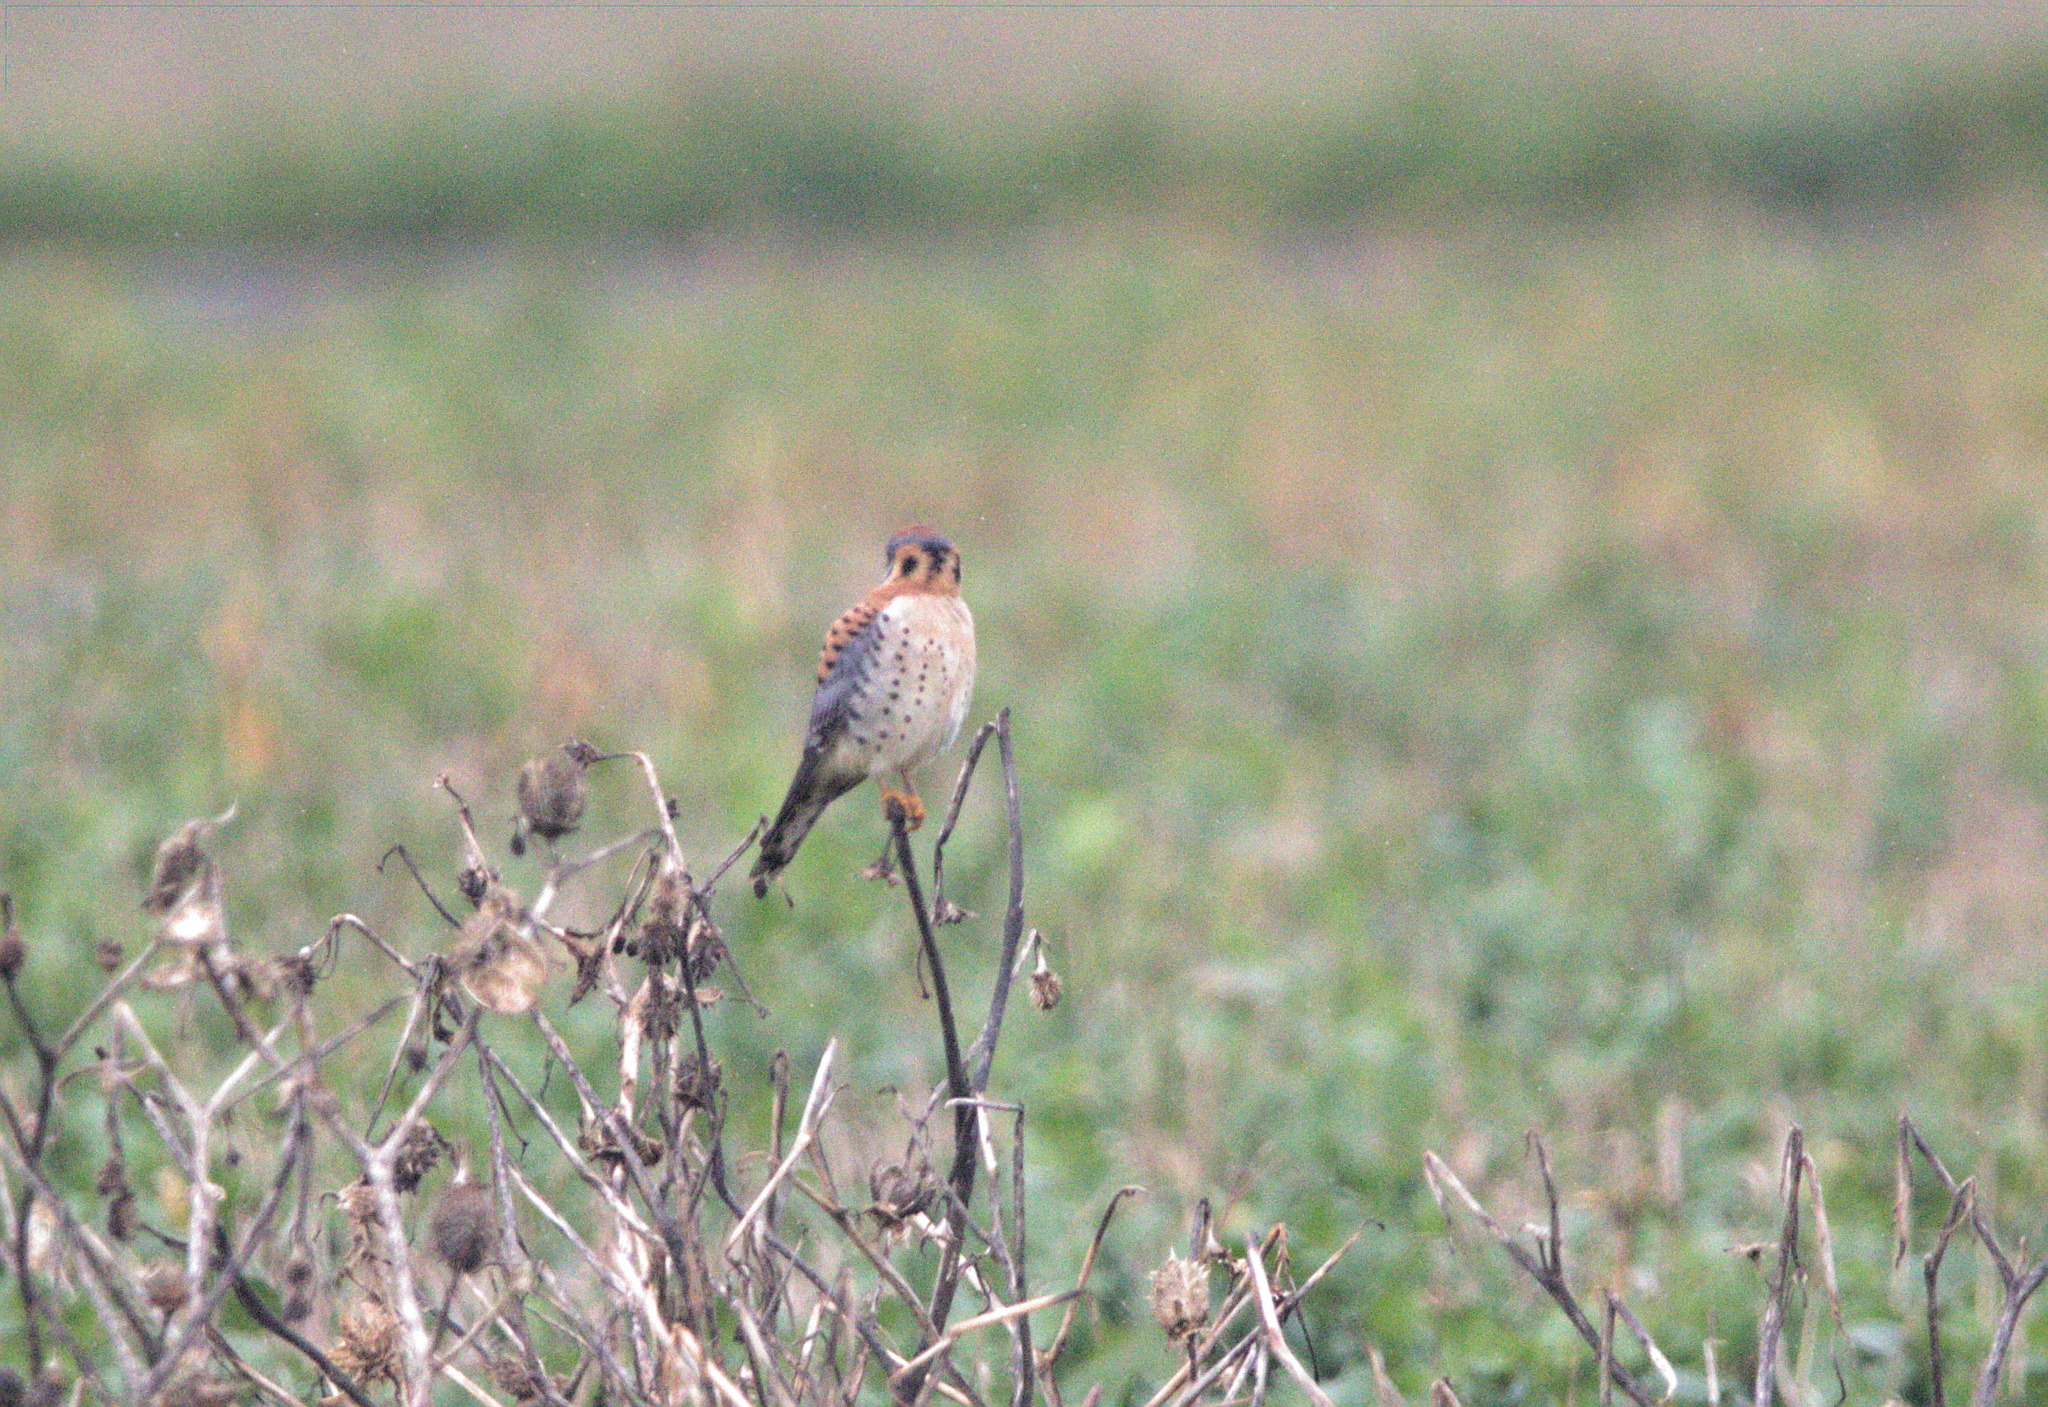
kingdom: Animalia
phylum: Chordata
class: Aves
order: Falconiformes
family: Falconidae
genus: Falco
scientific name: Falco sparverius
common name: American kestrel
